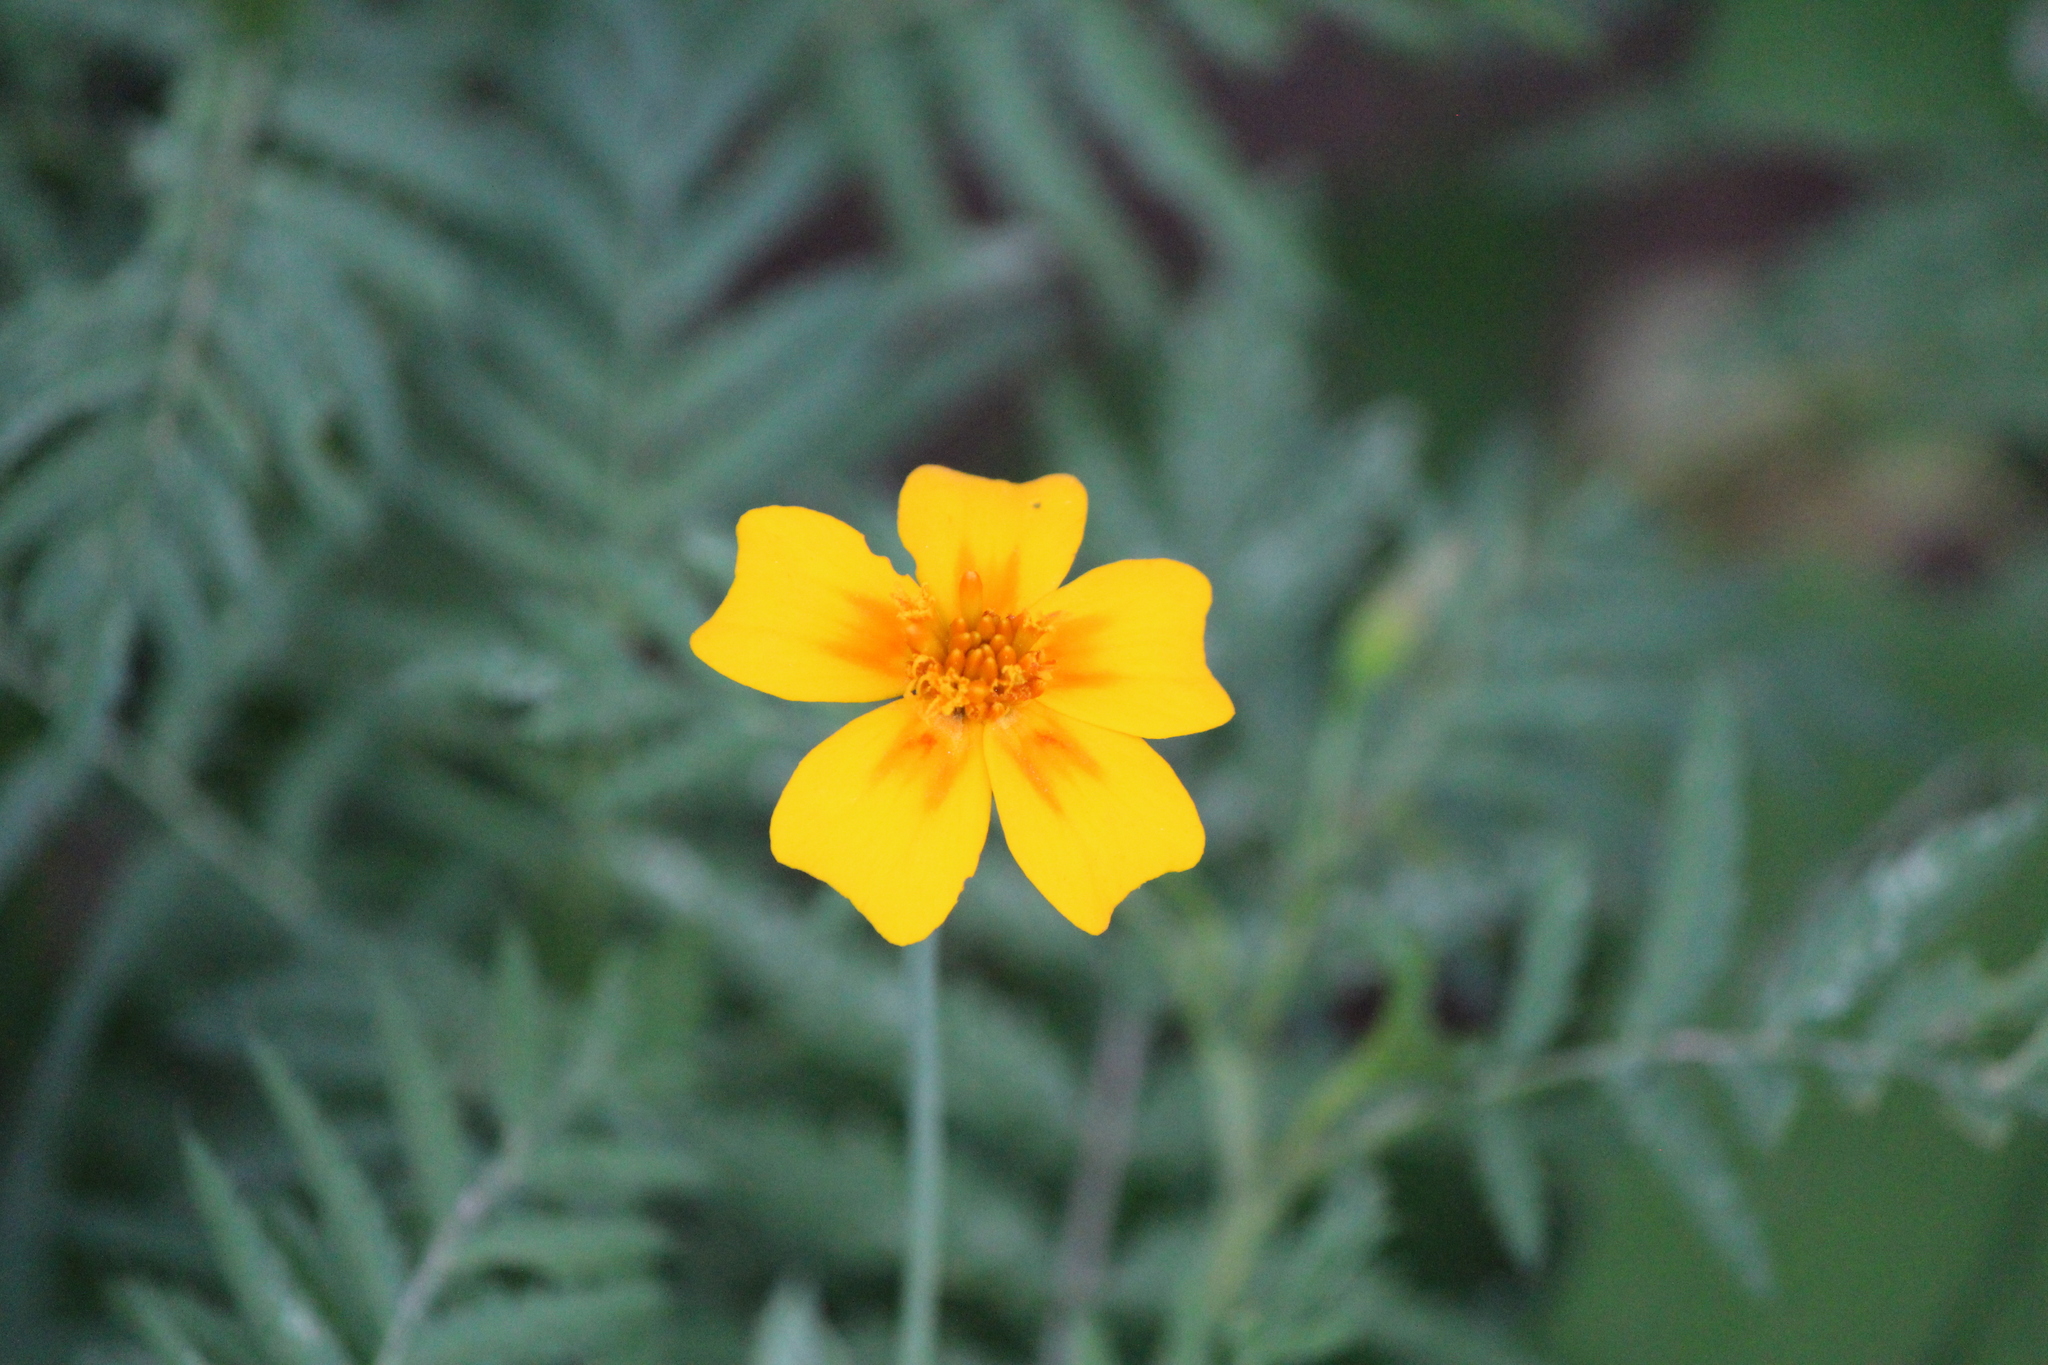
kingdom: Plantae
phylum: Tracheophyta
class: Magnoliopsida
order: Asterales
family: Asteraceae
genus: Tagetes
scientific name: Tagetes lunulata
